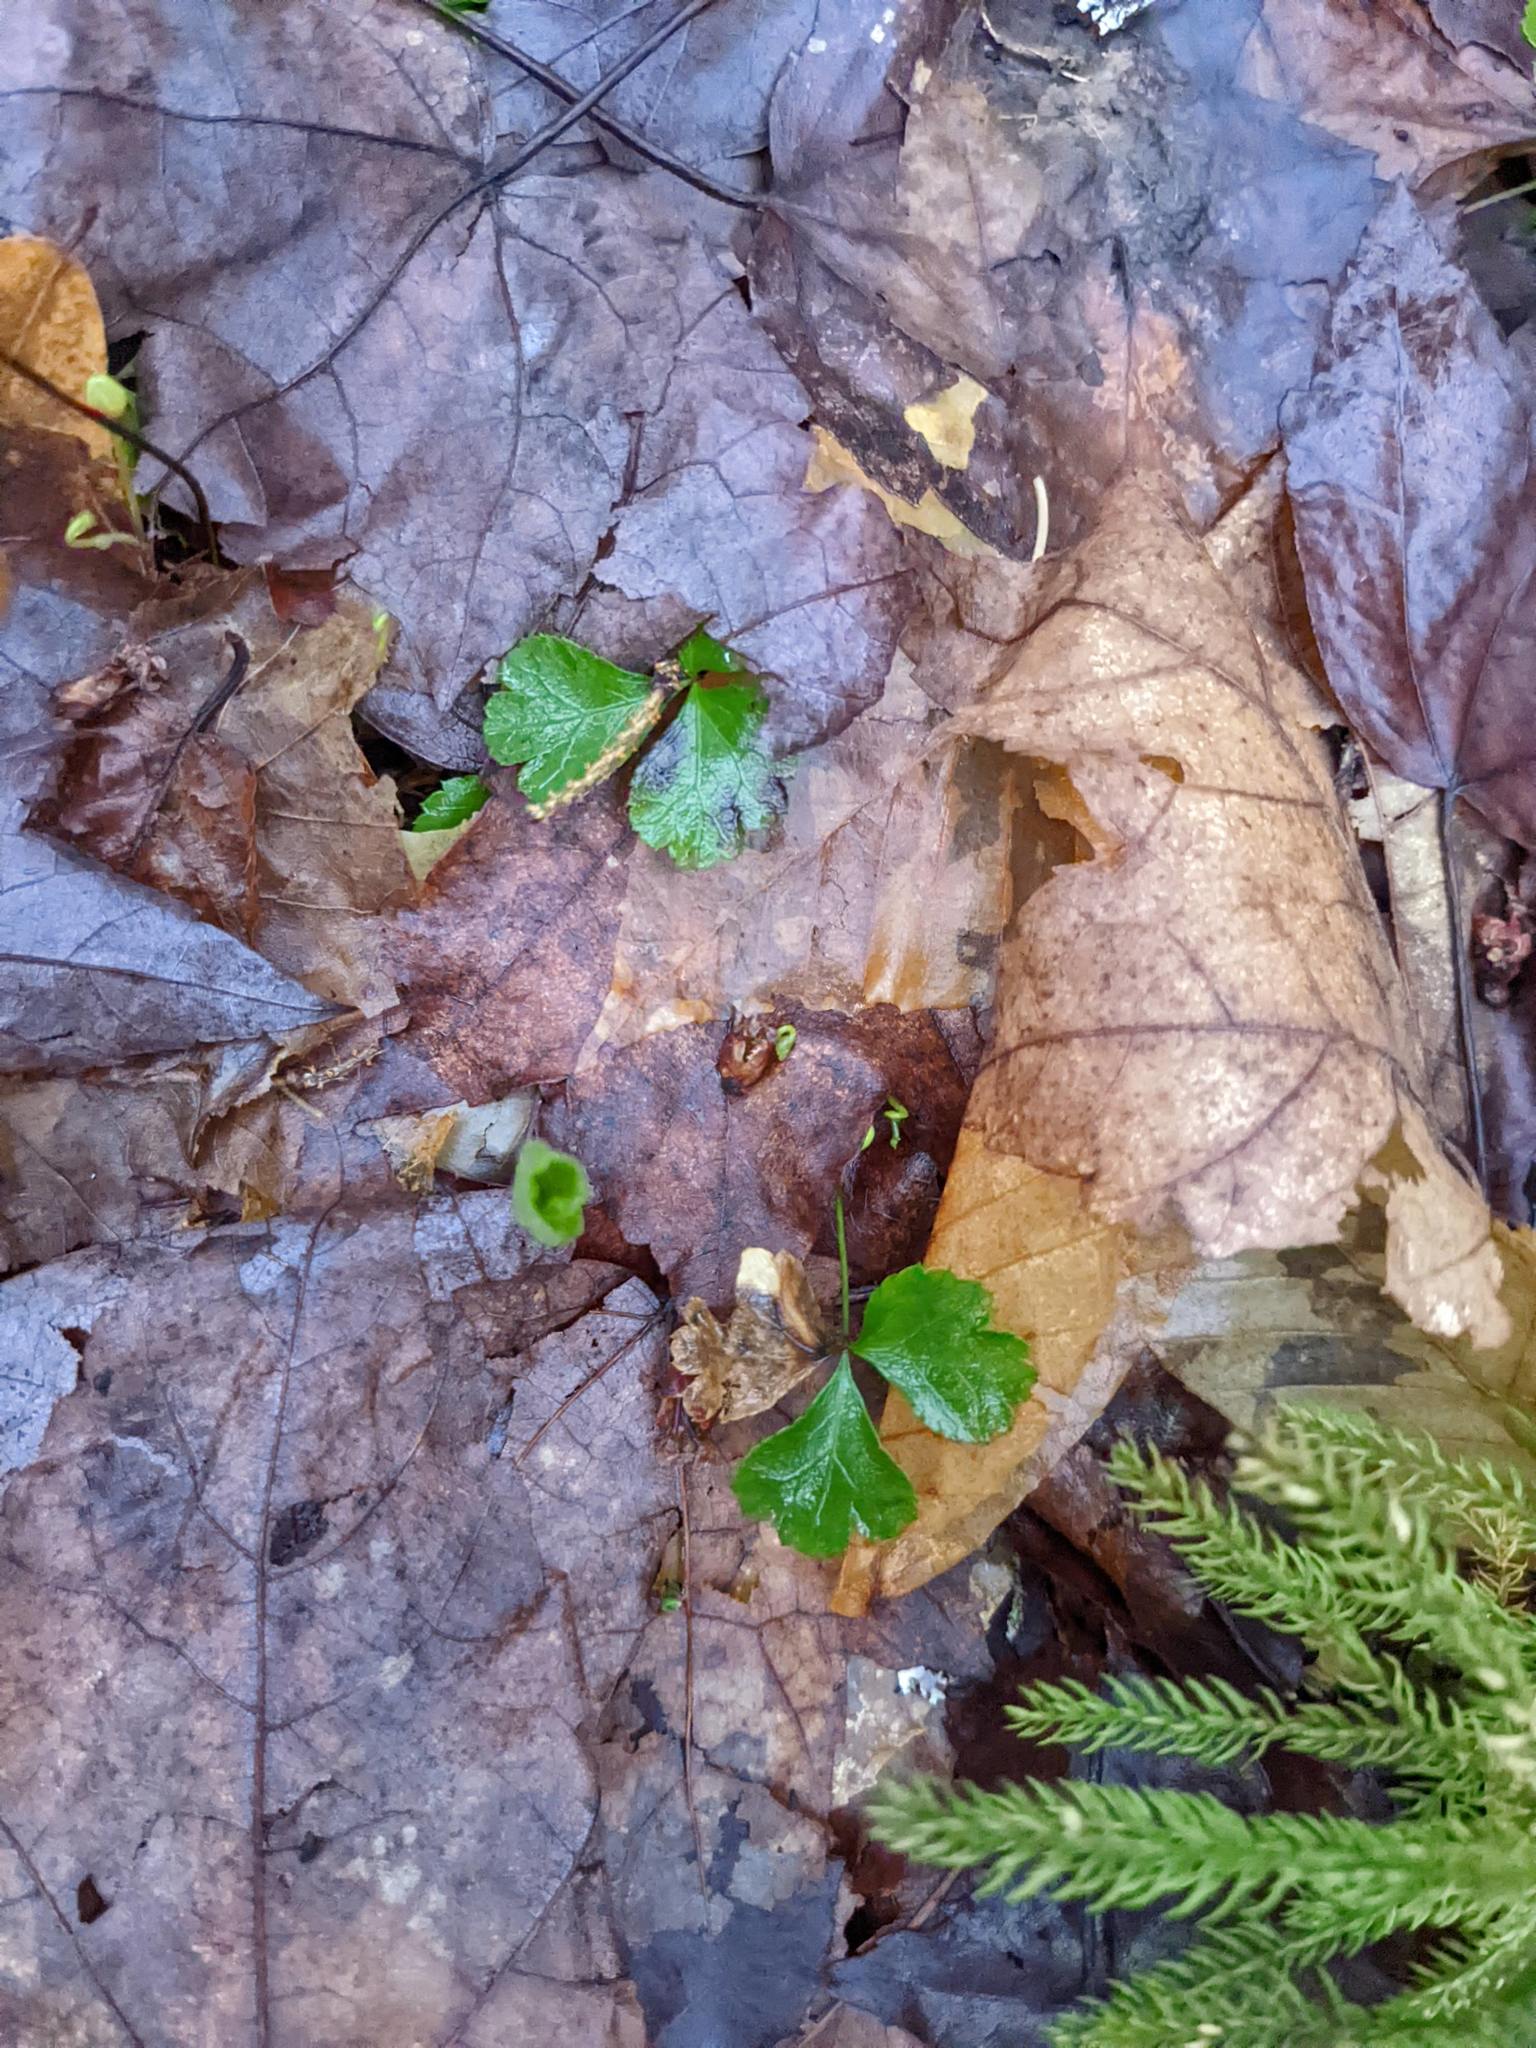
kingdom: Plantae
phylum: Tracheophyta
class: Magnoliopsida
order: Ranunculales
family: Ranunculaceae
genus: Coptis
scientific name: Coptis trifolia
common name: Canker-root
